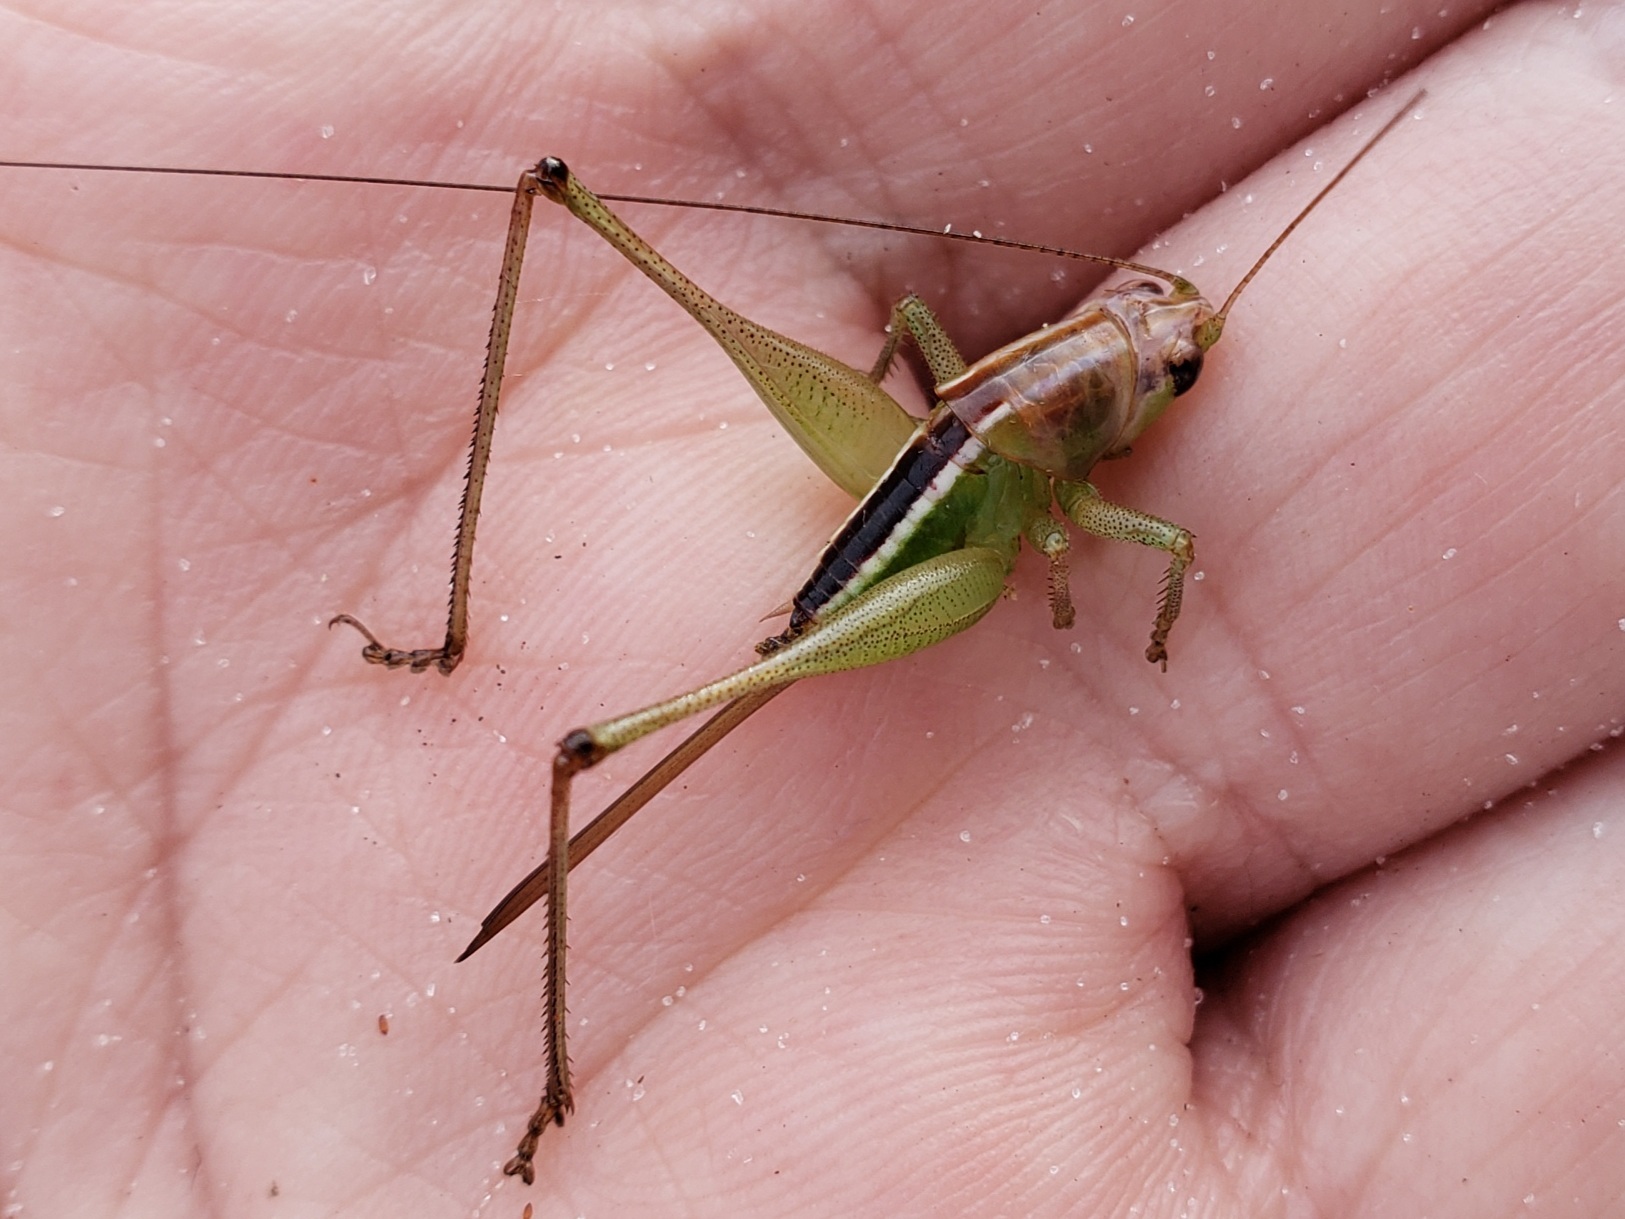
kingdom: Animalia
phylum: Arthropoda
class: Insecta
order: Orthoptera
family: Tettigoniidae
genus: Odontoxiphidium
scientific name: Odontoxiphidium apterum
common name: Wingless meadow katydid
